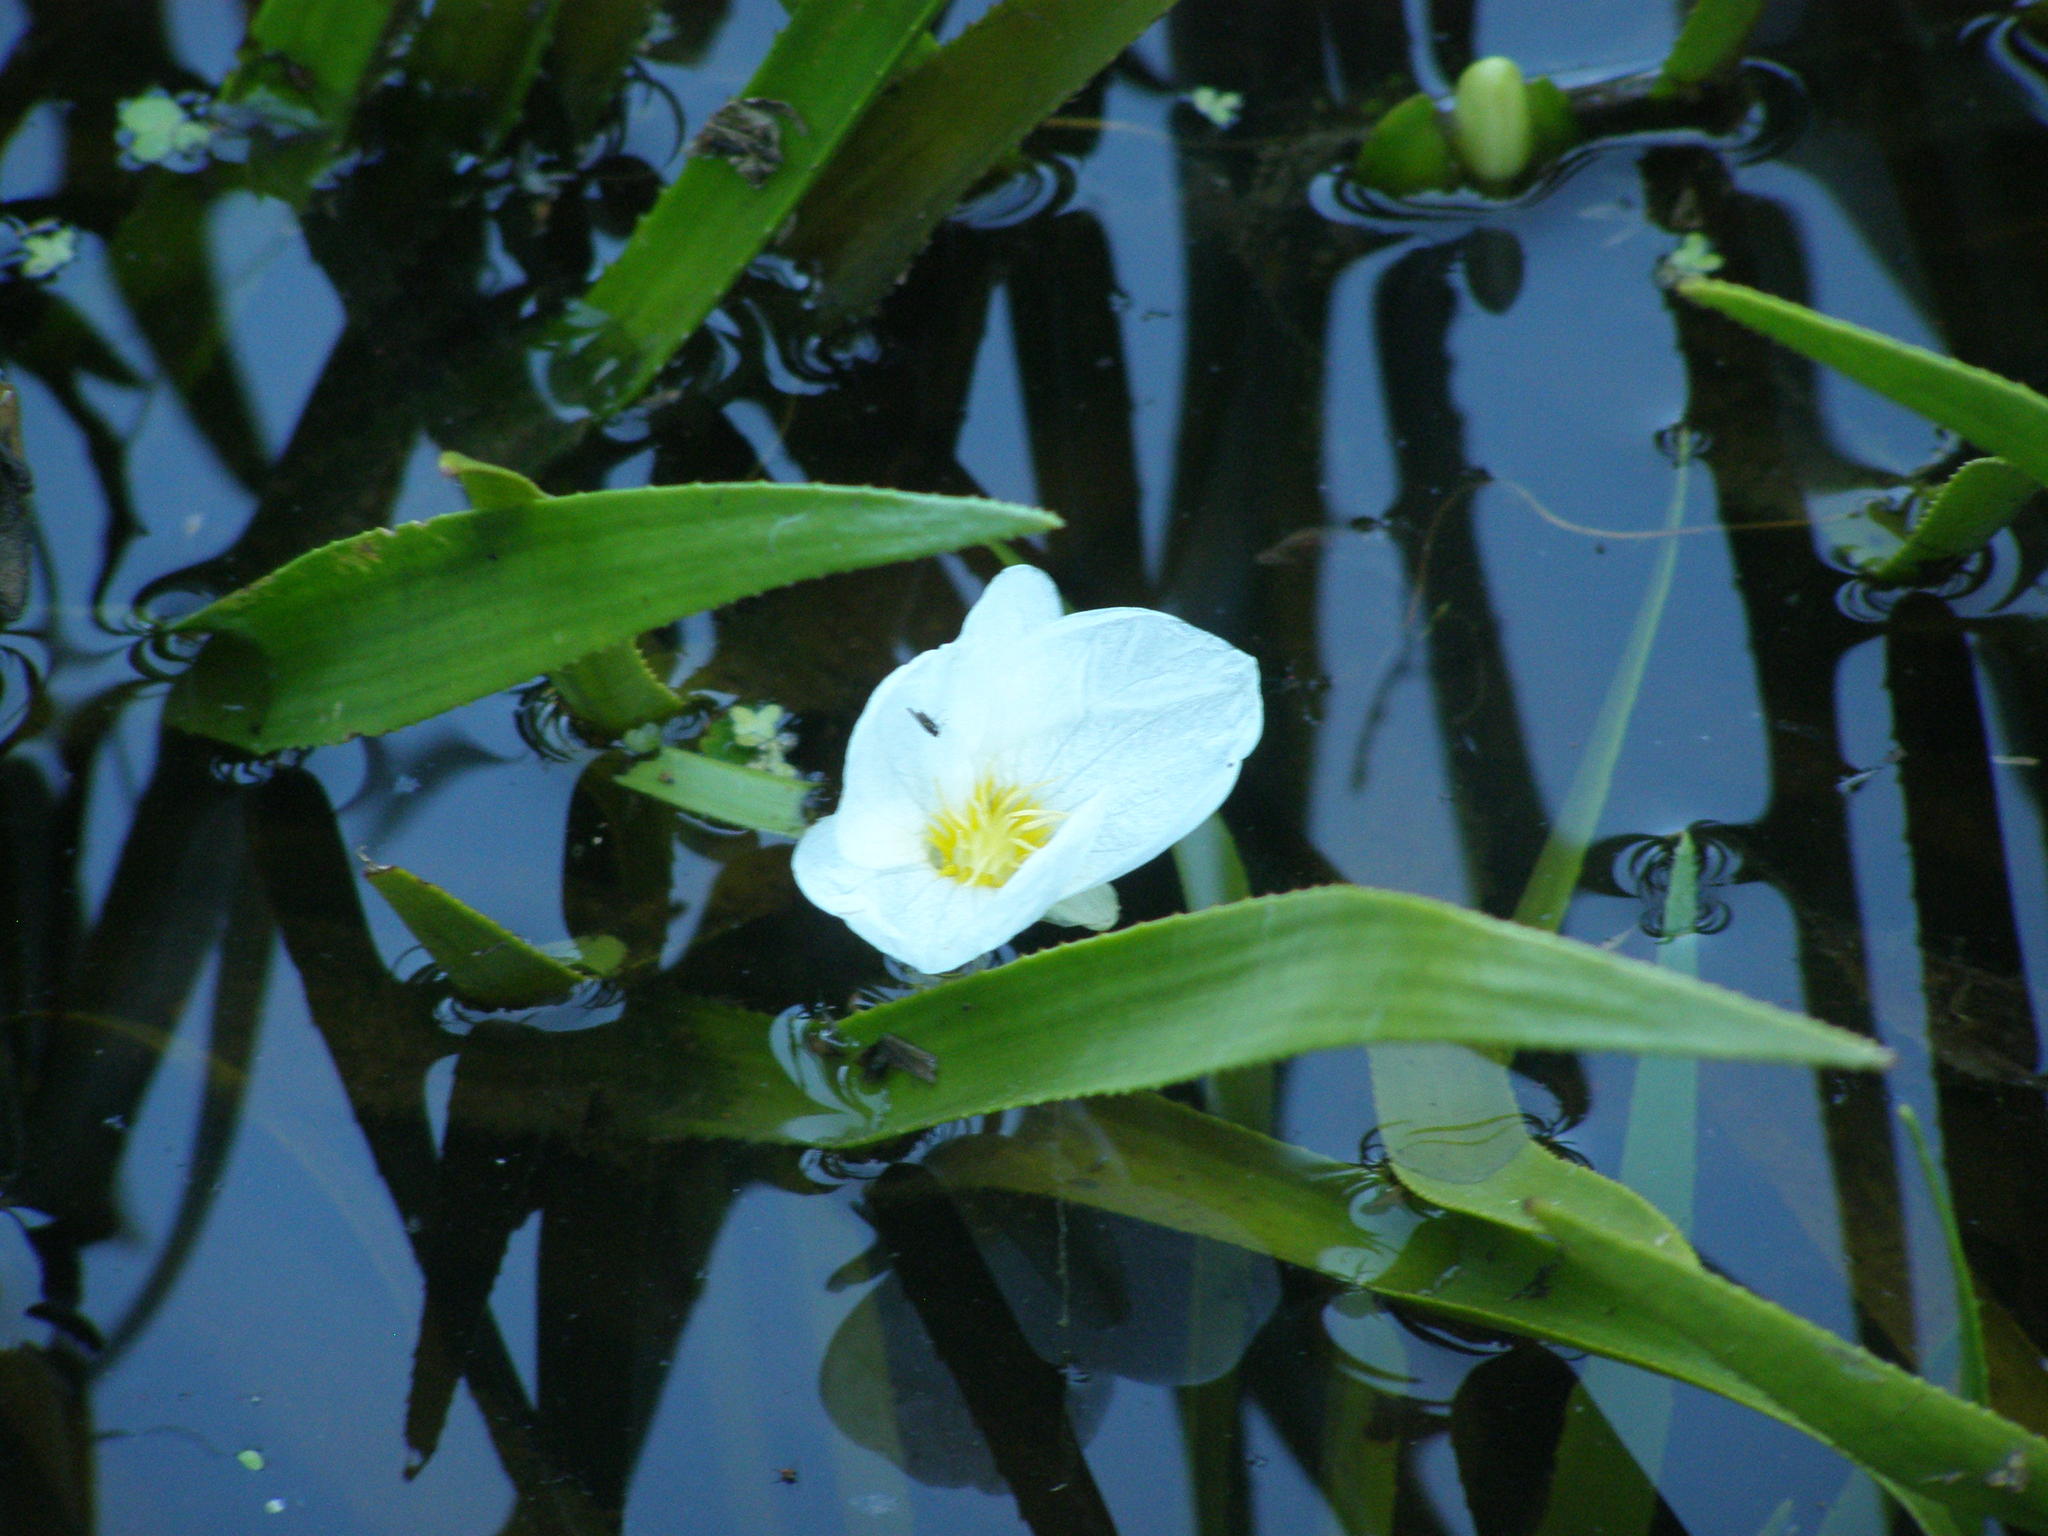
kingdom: Plantae
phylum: Tracheophyta
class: Liliopsida
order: Alismatales
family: Hydrocharitaceae
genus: Stratiotes
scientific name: Stratiotes aloides
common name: Water-soldier
